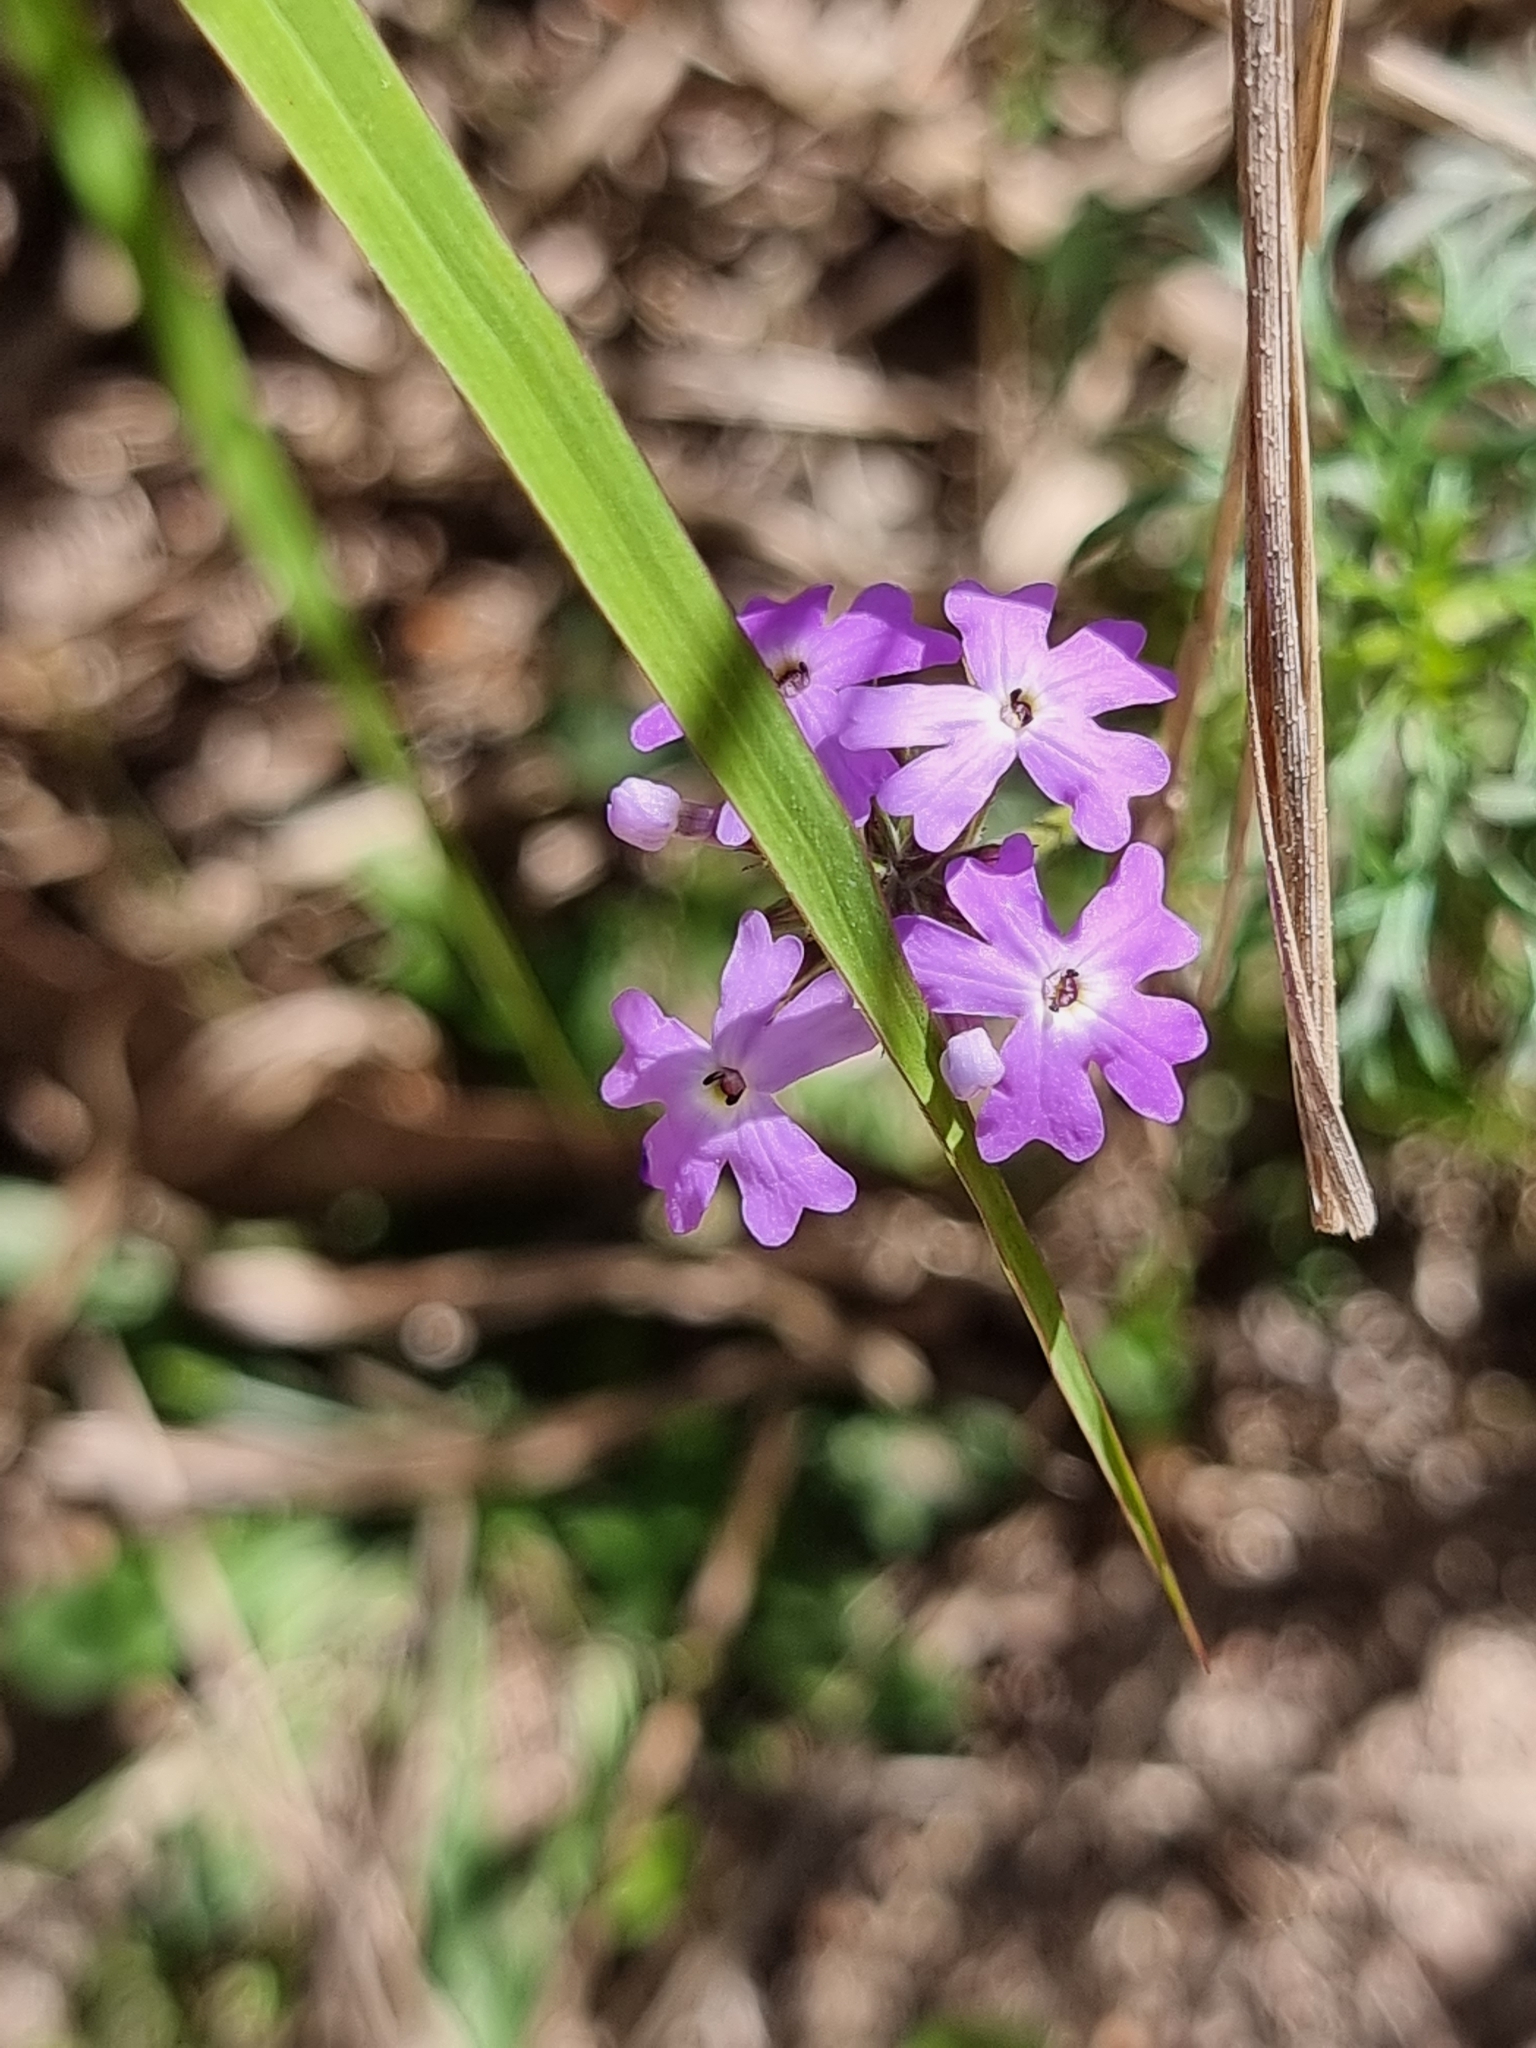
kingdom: Plantae
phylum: Tracheophyta
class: Magnoliopsida
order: Lamiales
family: Verbenaceae
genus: Verbena
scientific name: Verbena aristigera
